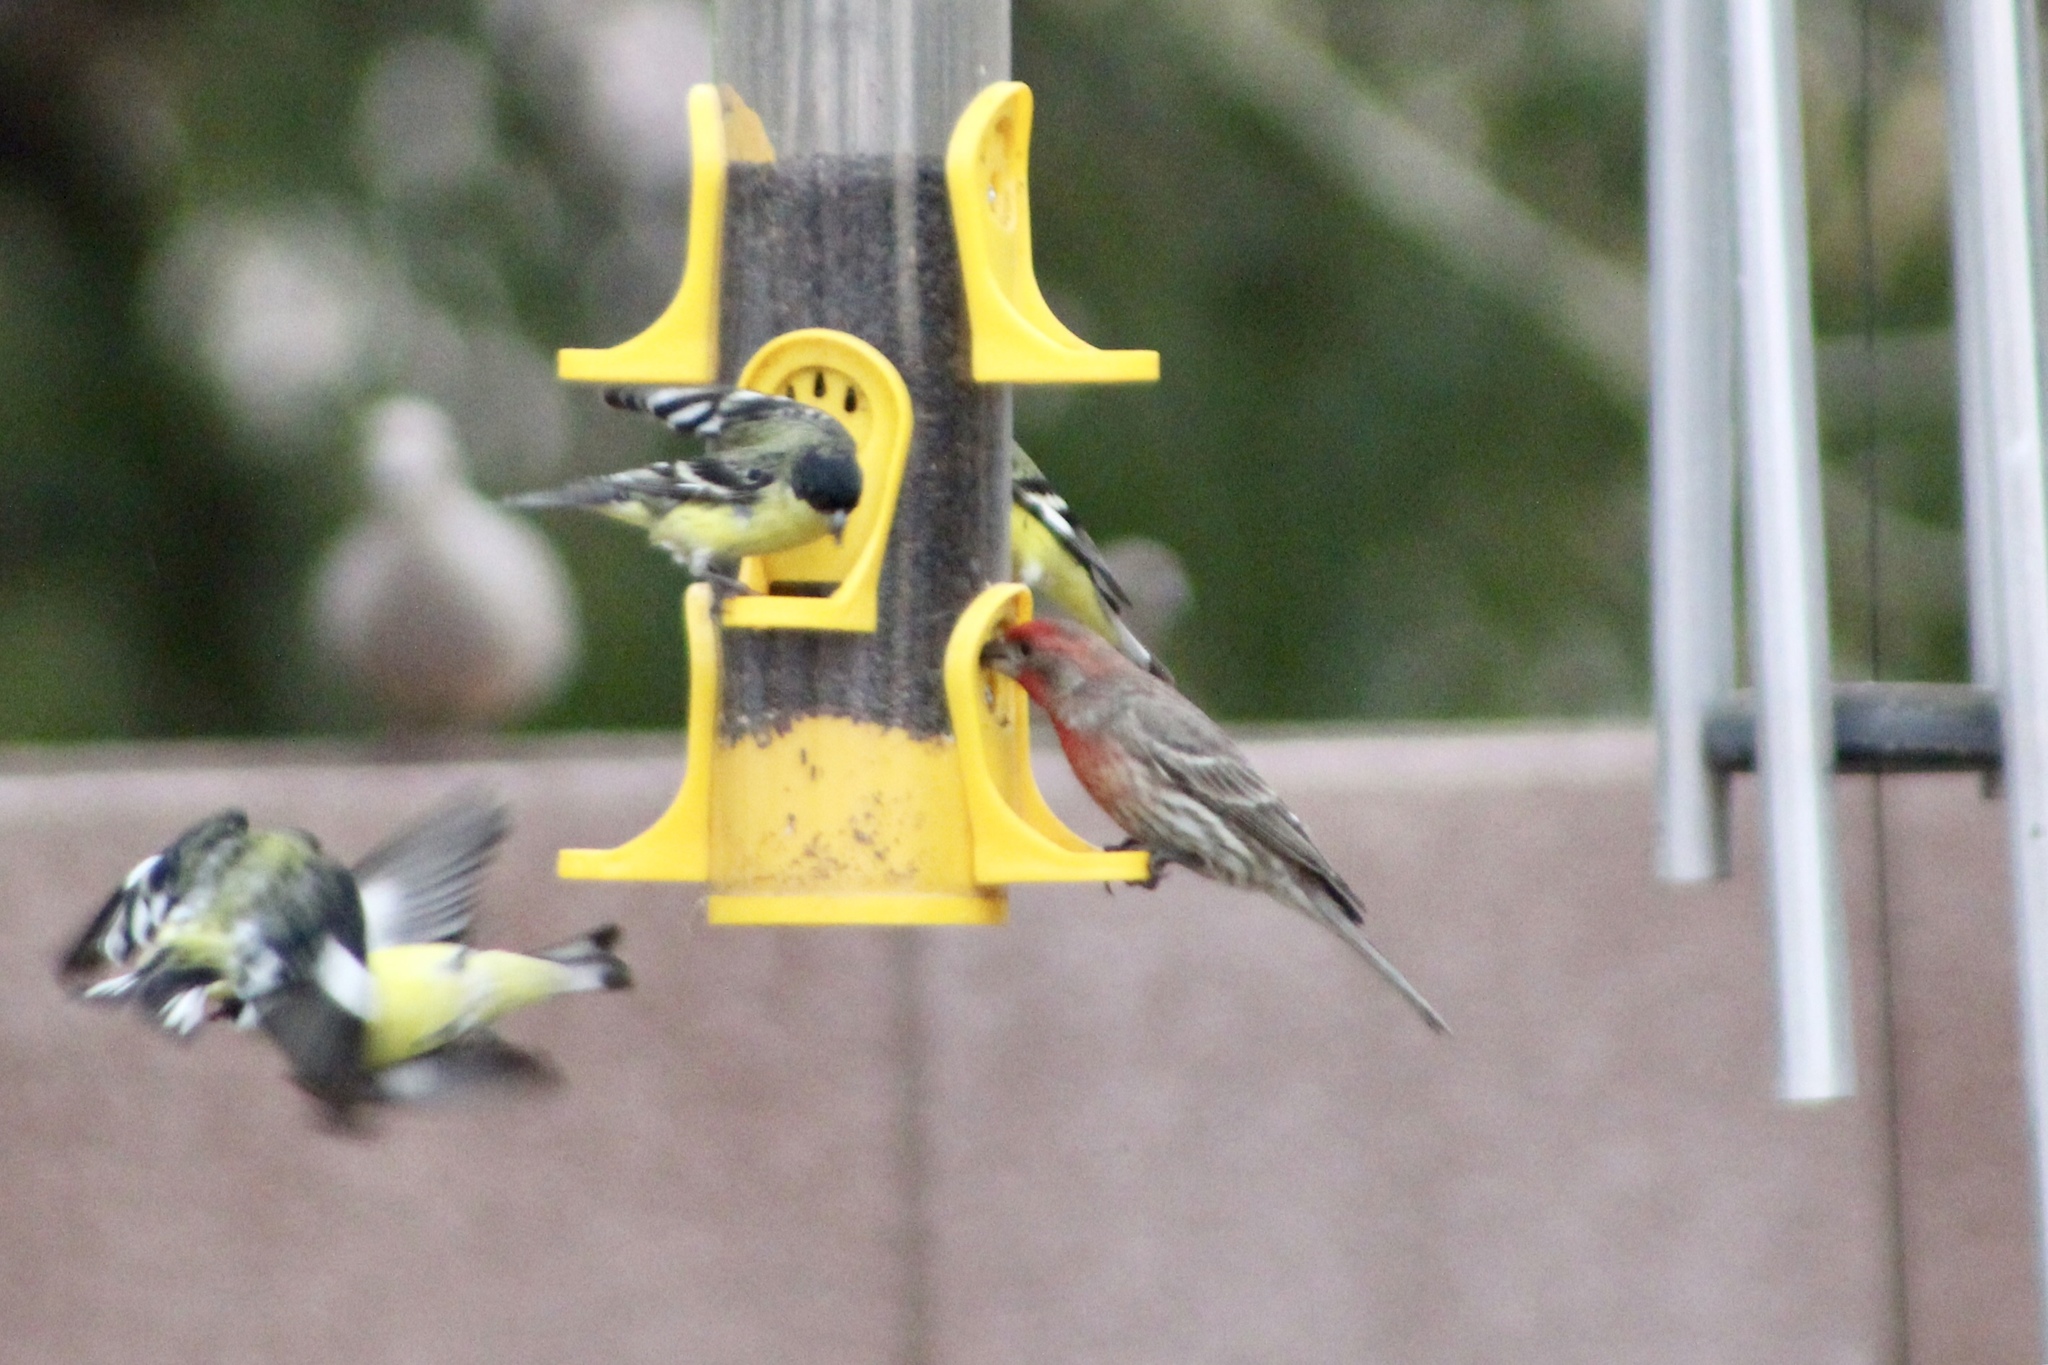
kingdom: Animalia
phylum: Chordata
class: Aves
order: Passeriformes
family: Fringillidae
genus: Haemorhous
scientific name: Haemorhous mexicanus
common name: House finch
